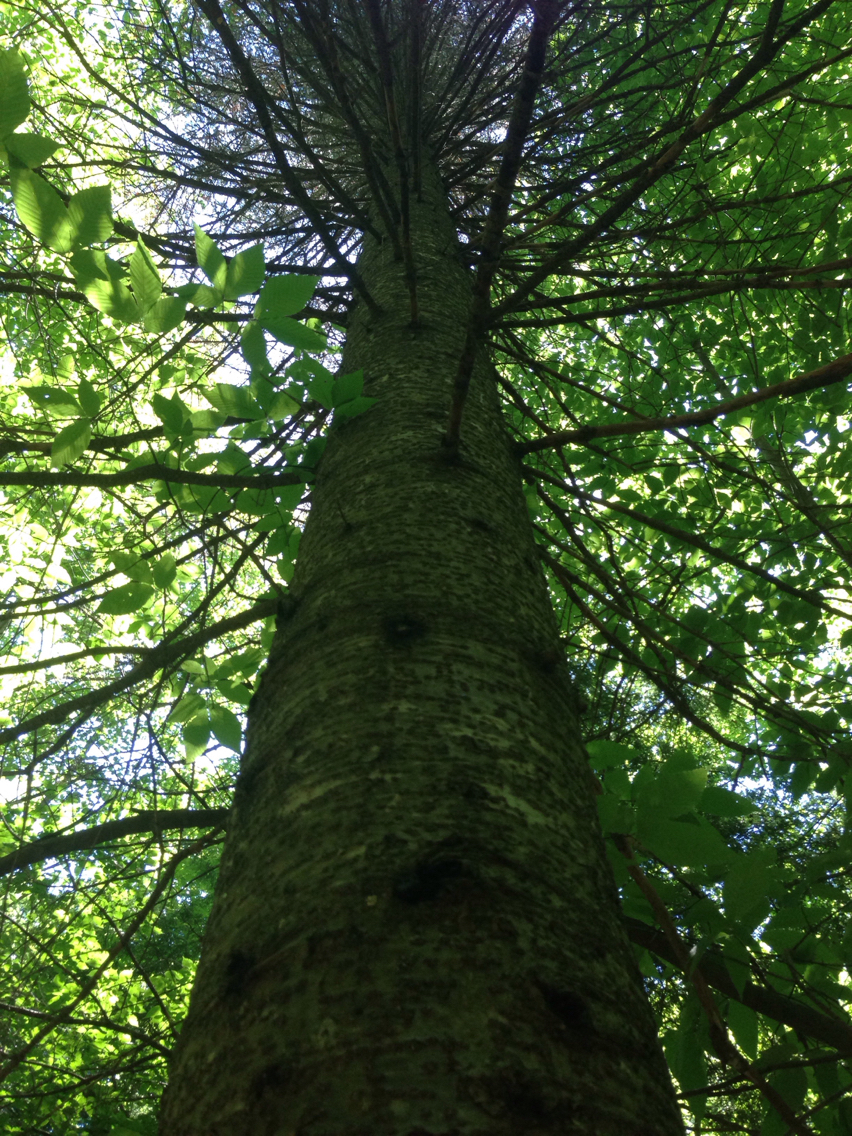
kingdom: Plantae
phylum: Tracheophyta
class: Pinopsida
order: Pinales
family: Pinaceae
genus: Abies
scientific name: Abies balsamea
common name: Balsam fir
